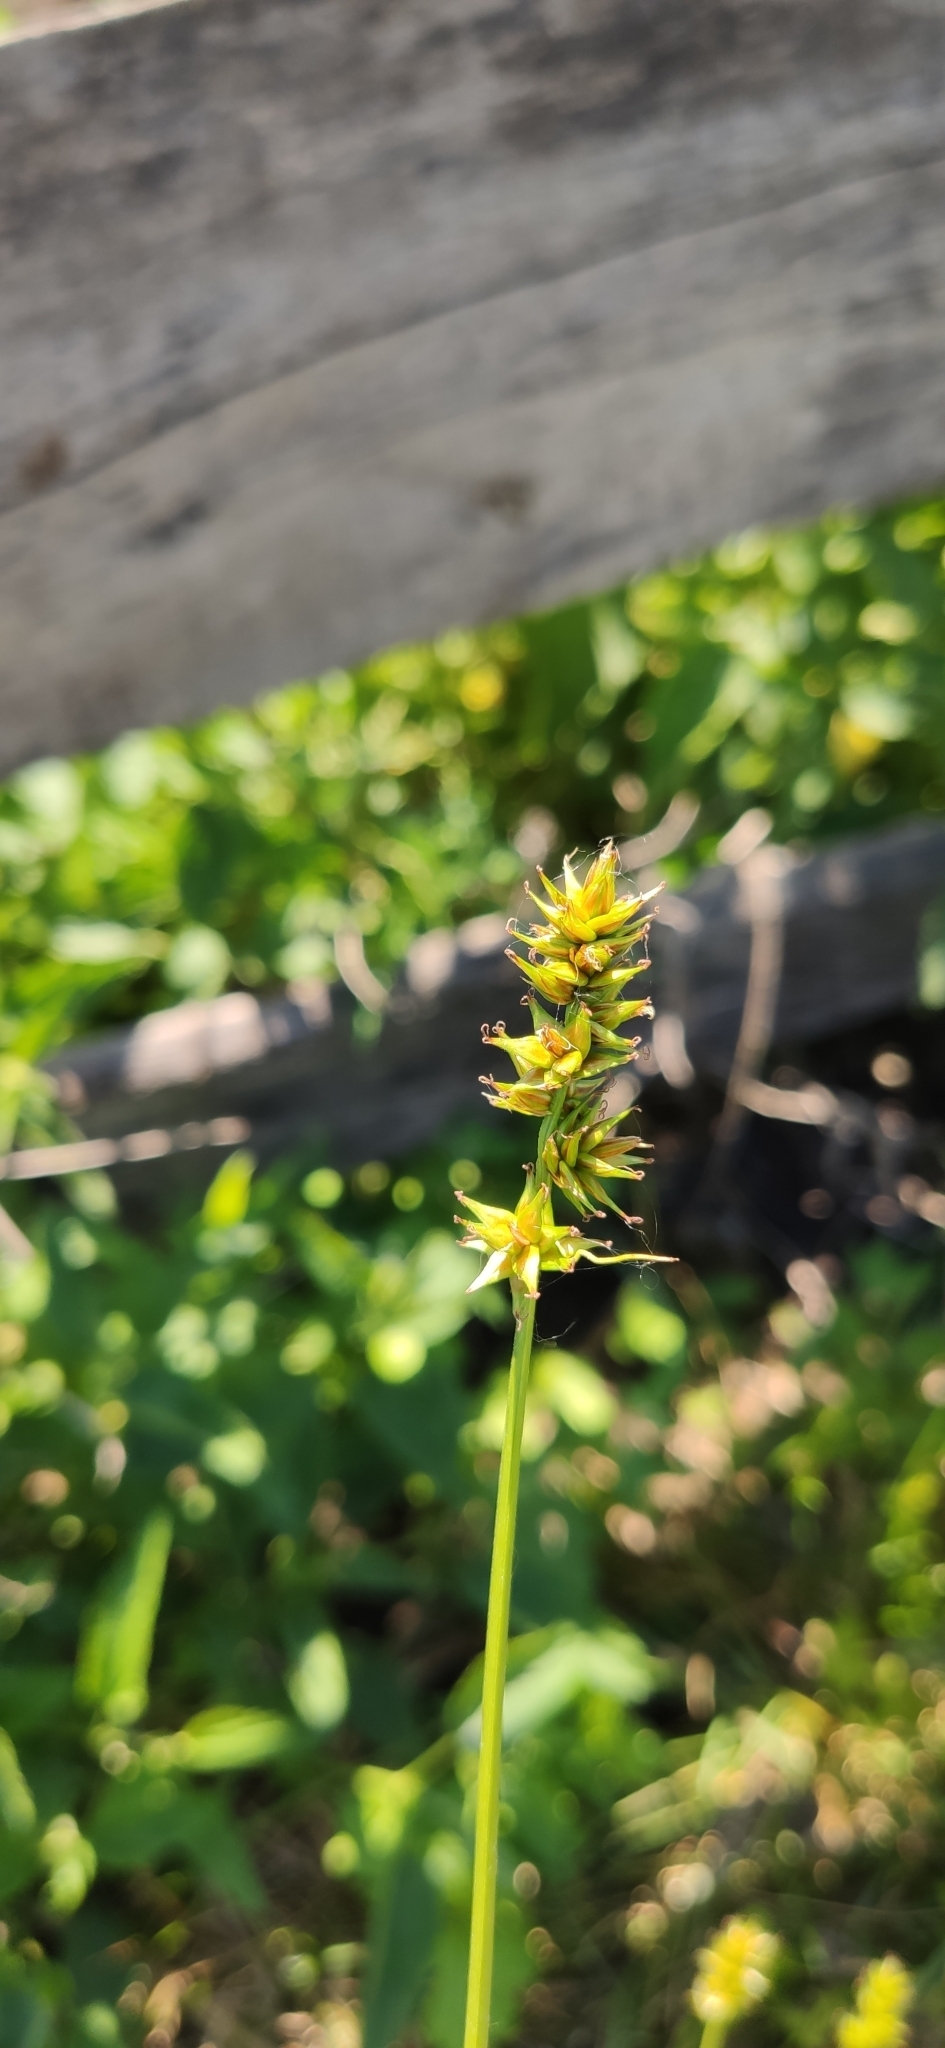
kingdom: Plantae
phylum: Tracheophyta
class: Liliopsida
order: Poales
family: Cyperaceae
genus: Carex
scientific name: Carex spicata
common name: Spiked sedge
